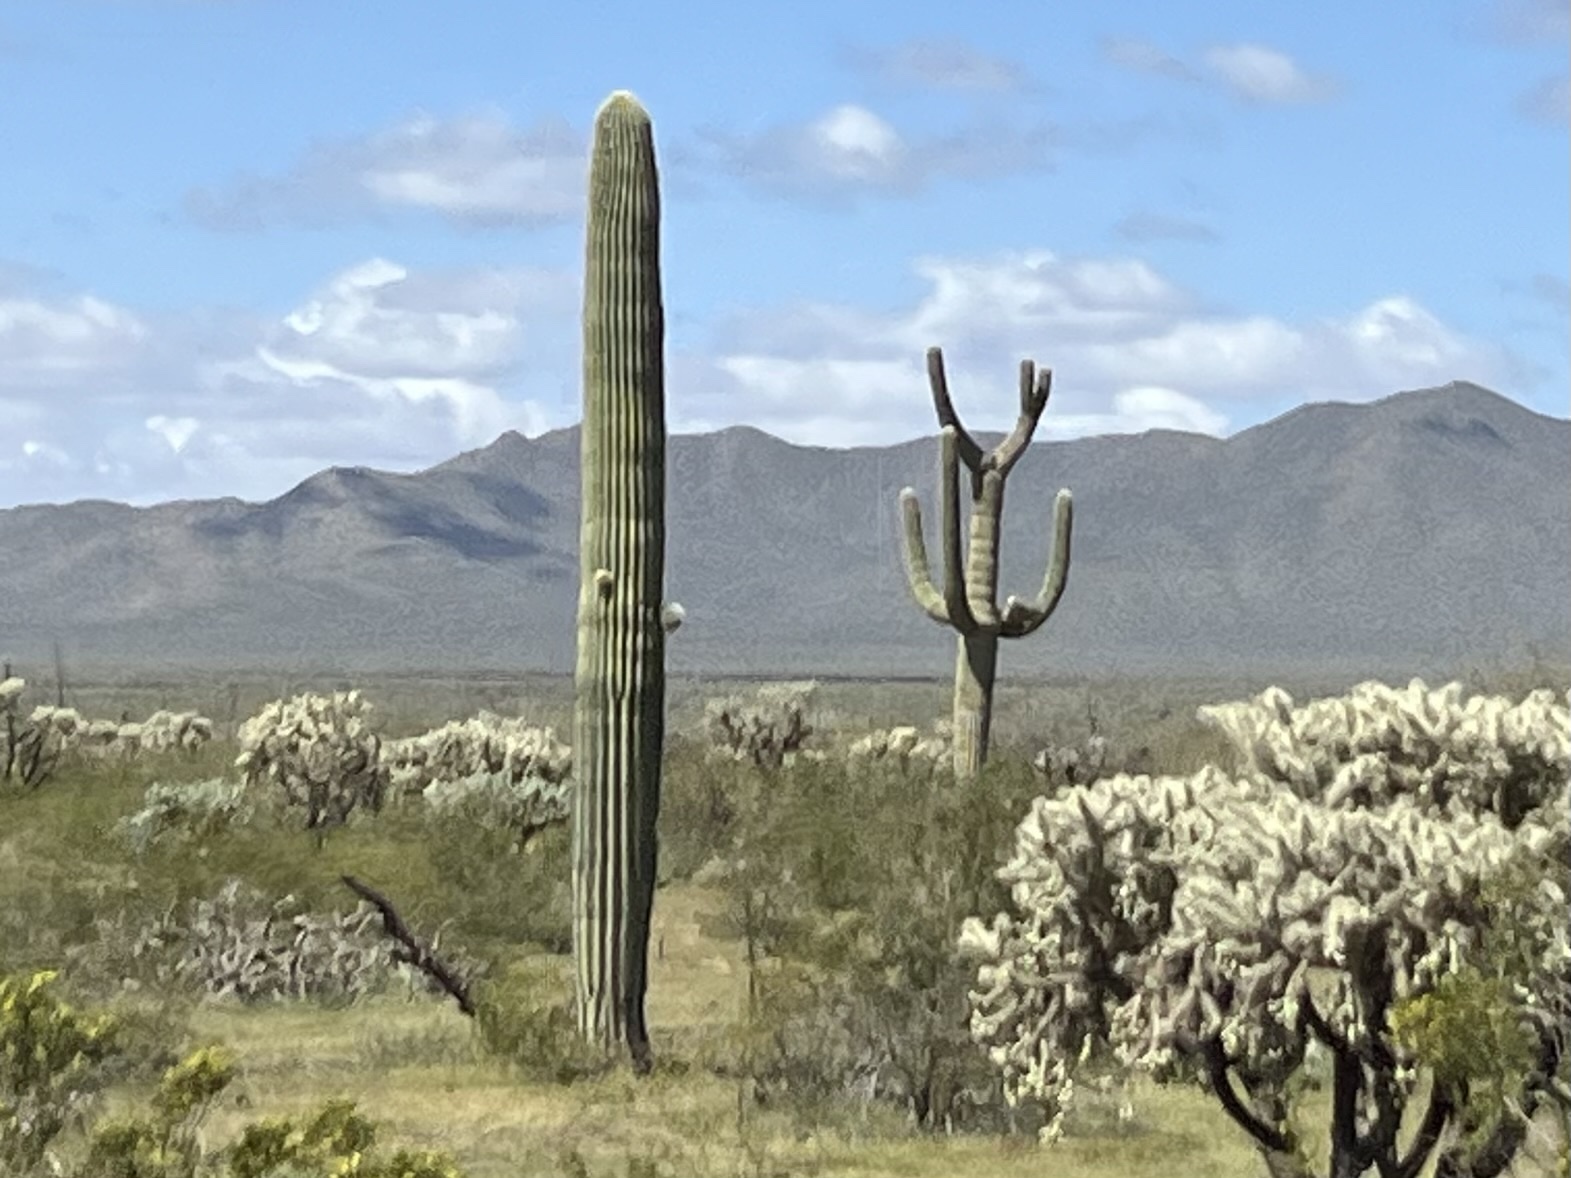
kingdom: Plantae
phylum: Tracheophyta
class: Magnoliopsida
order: Caryophyllales
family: Cactaceae
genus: Carnegiea
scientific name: Carnegiea gigantea
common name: Saguaro
